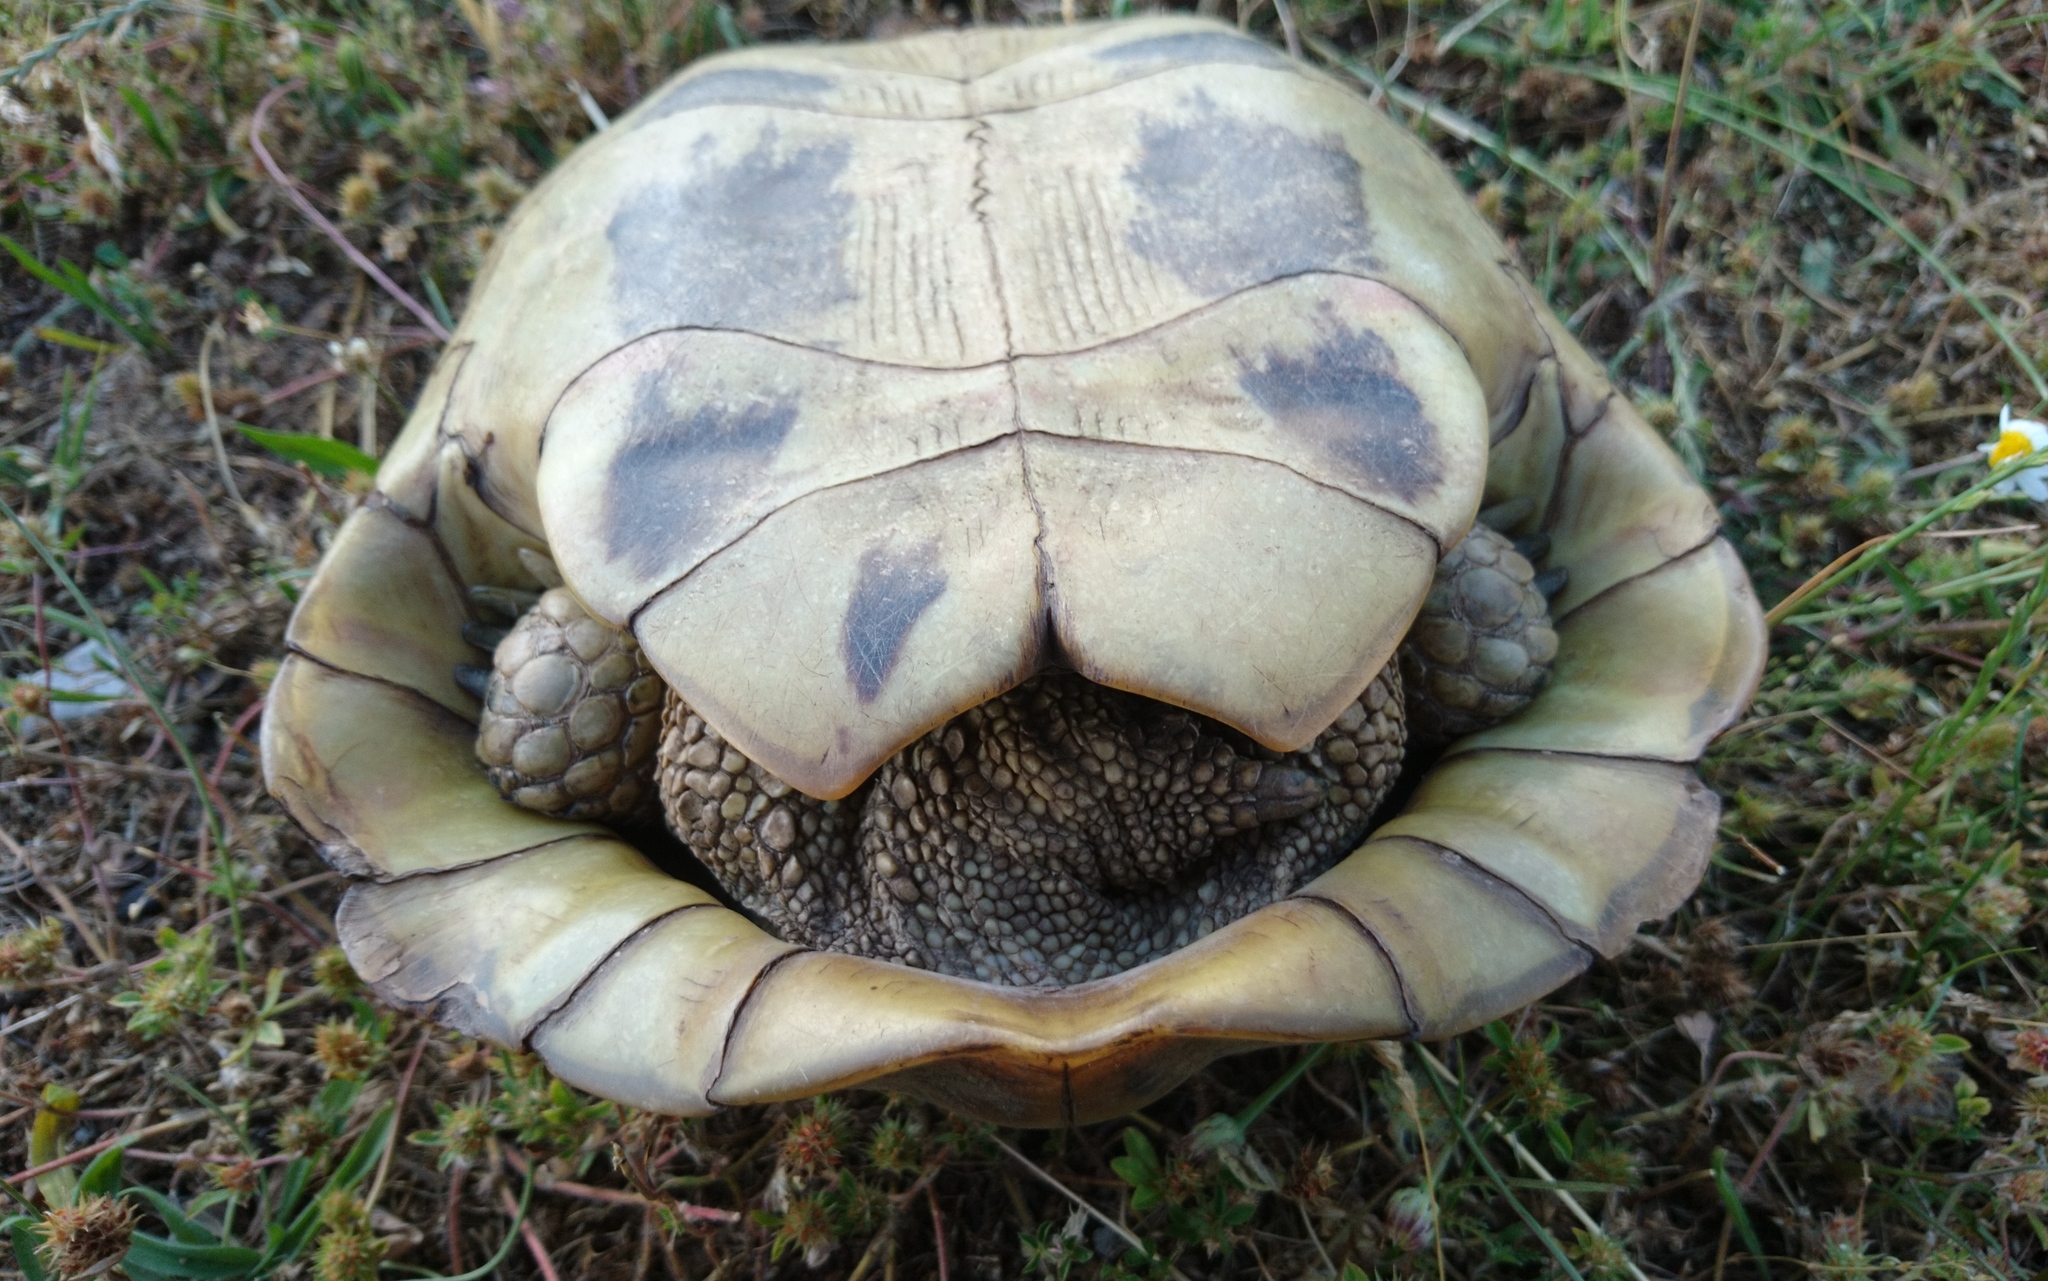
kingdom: Animalia
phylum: Chordata
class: Testudines
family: Testudinidae
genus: Testudo
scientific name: Testudo hermanni
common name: Hermann's tortoise
